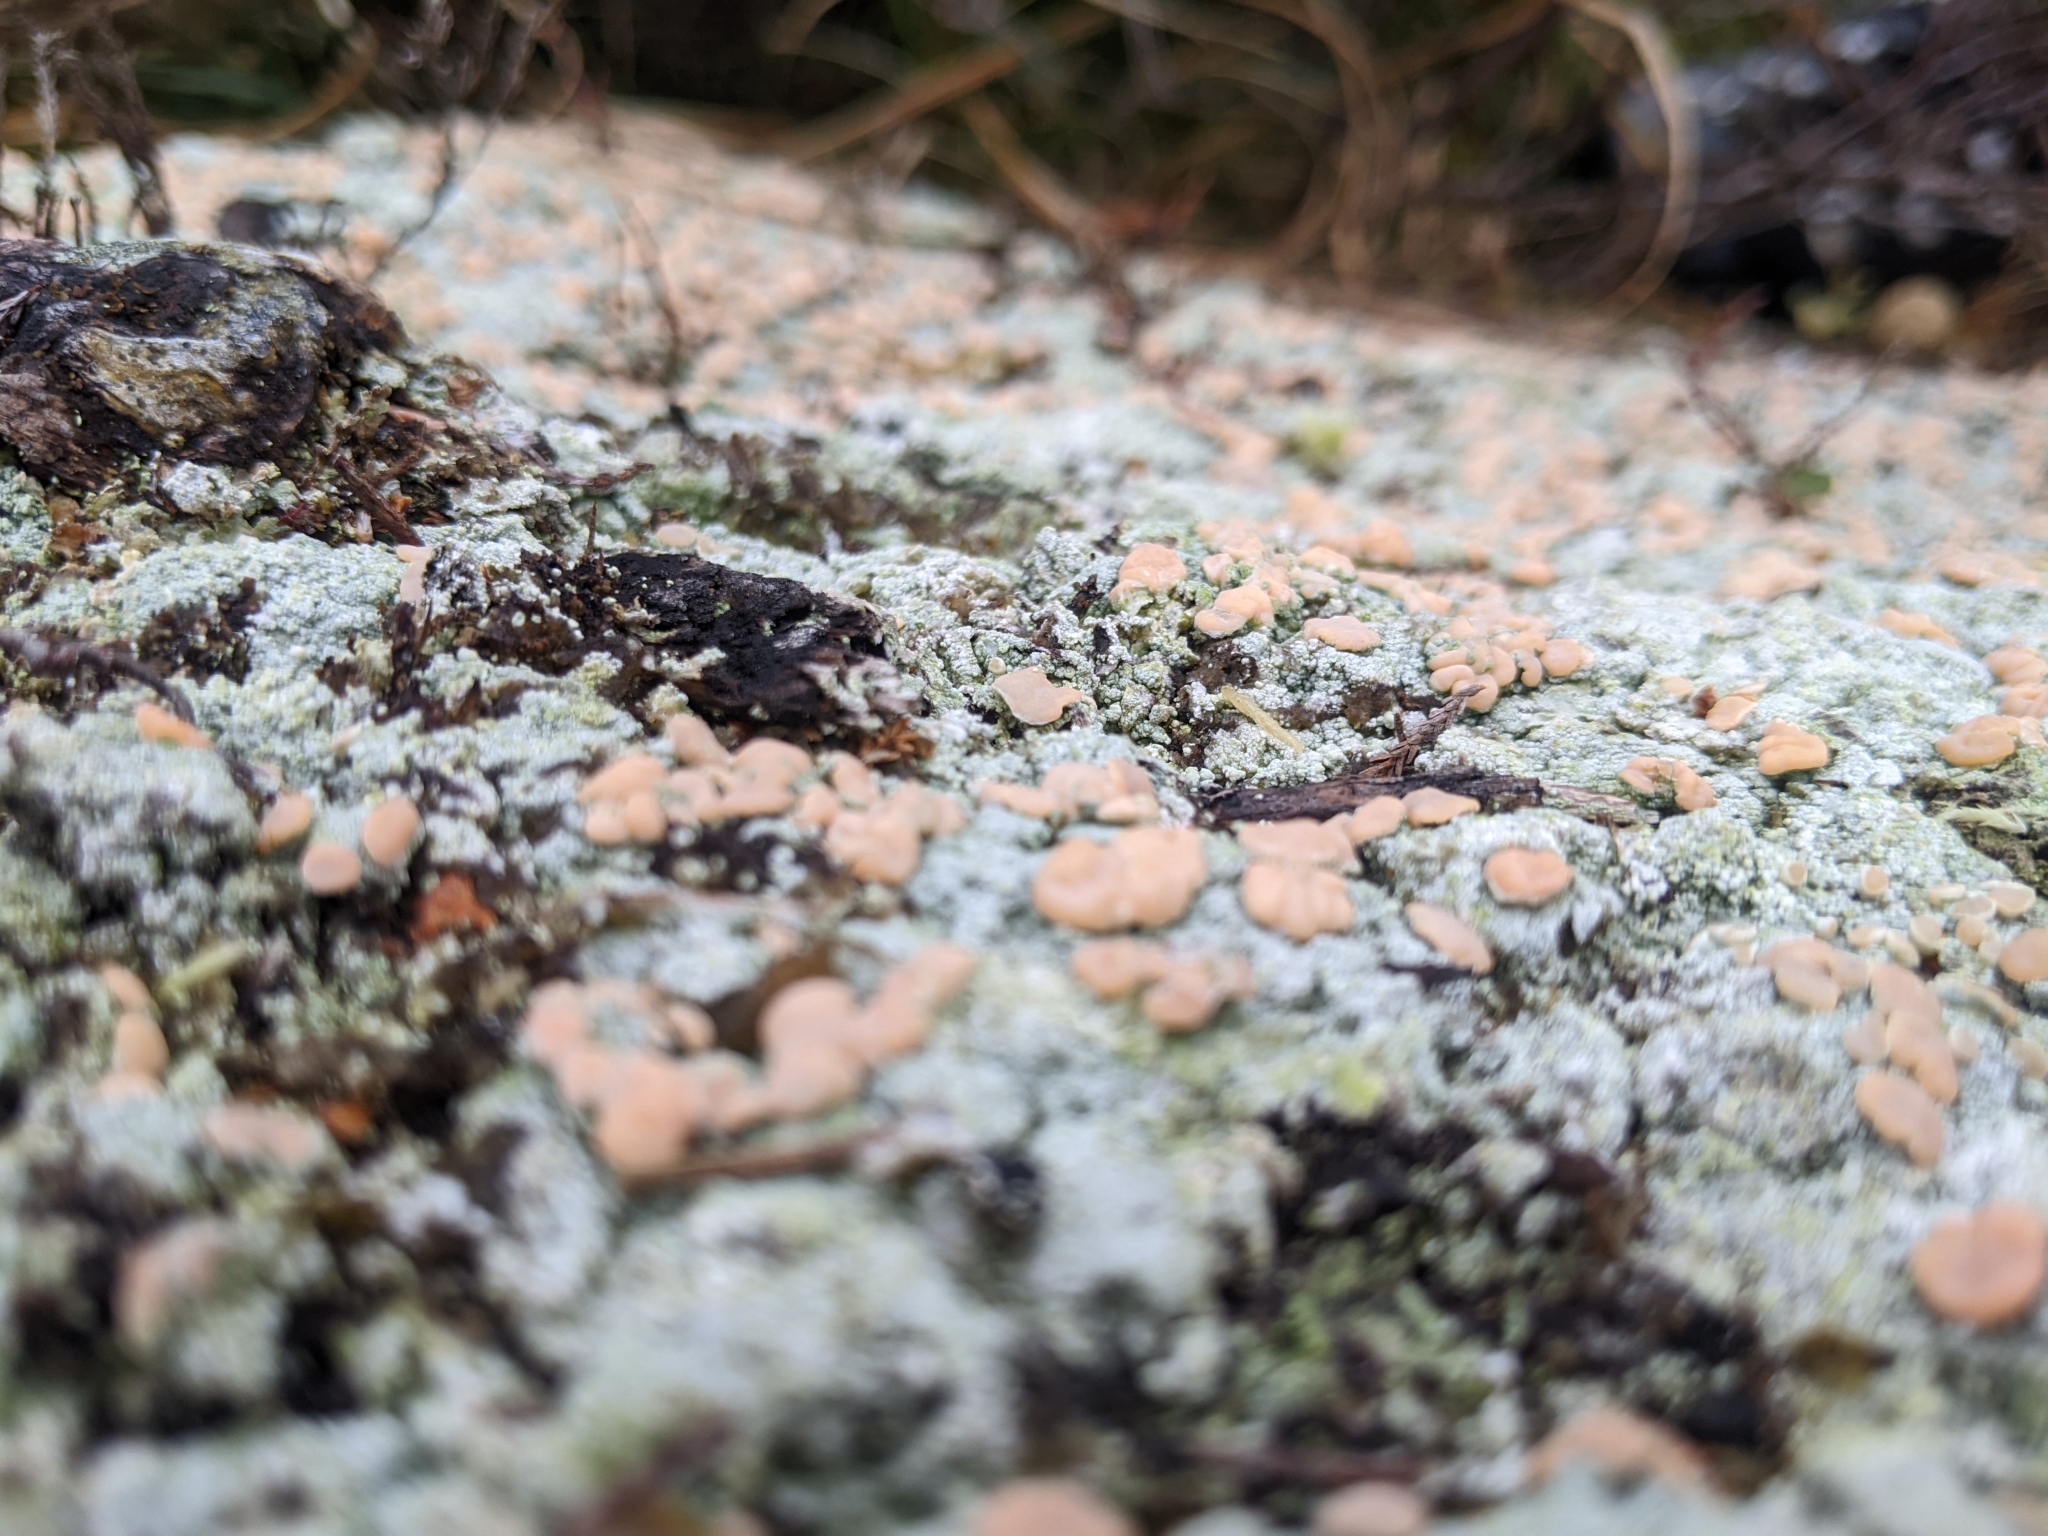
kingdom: Fungi
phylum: Ascomycota
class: Lecanoromycetes
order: Pertusariales
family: Icmadophilaceae
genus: Icmadophila
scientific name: Icmadophila ericetorum
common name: Candy lichen
